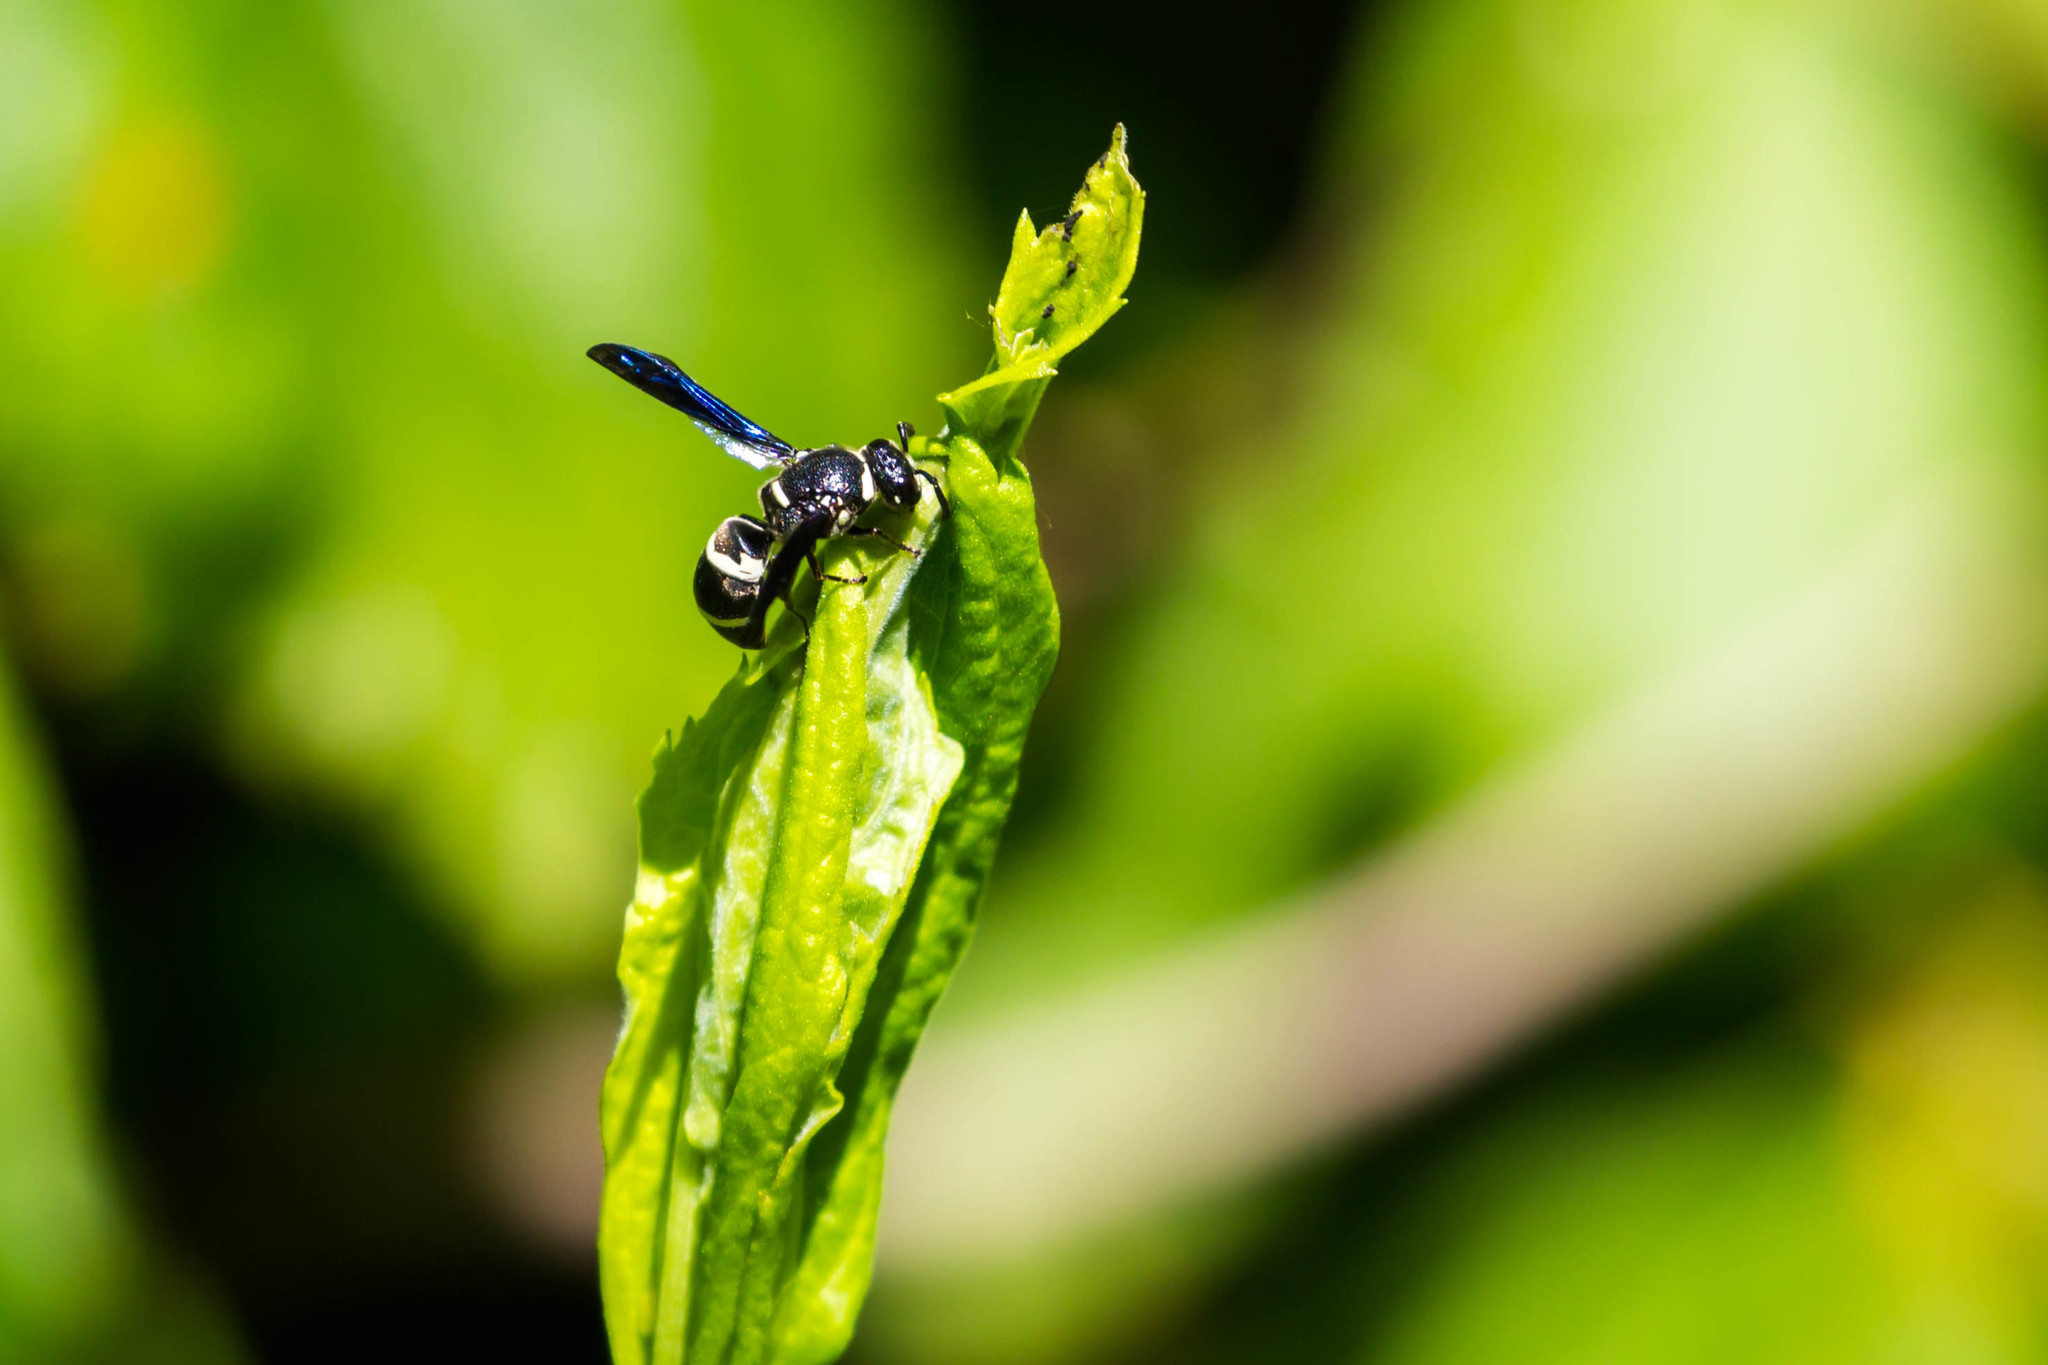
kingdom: Animalia
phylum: Arthropoda
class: Insecta
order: Hymenoptera
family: Eumenidae
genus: Euodynerus
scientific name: Euodynerus megaera
